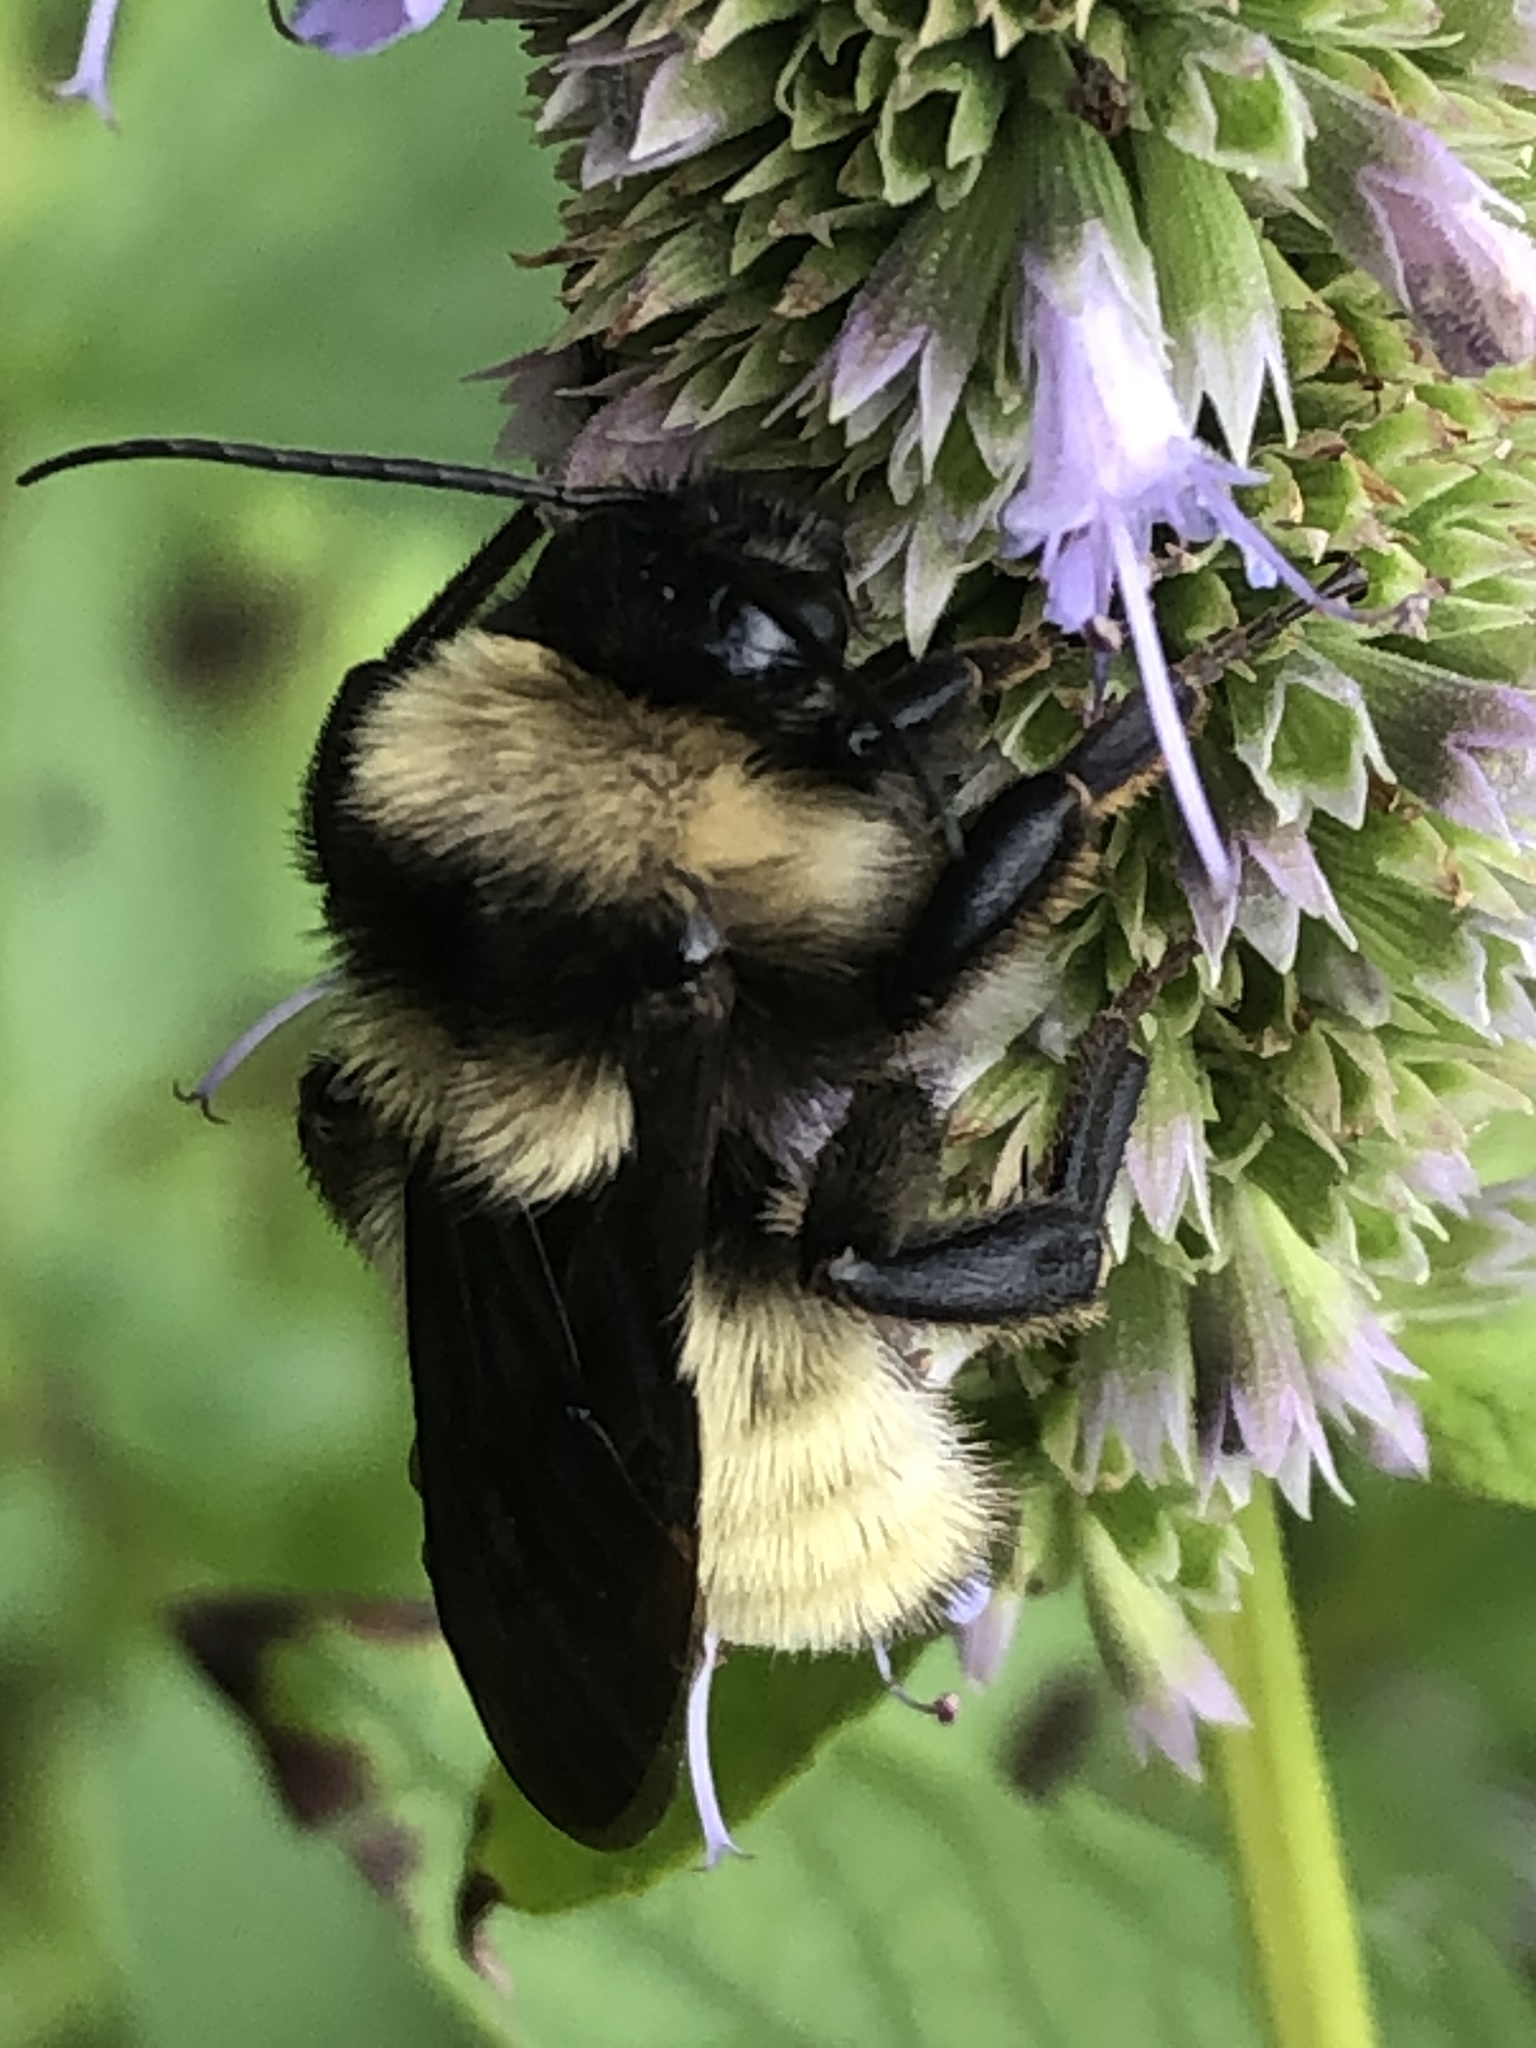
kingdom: Animalia
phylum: Arthropoda
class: Insecta
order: Hymenoptera
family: Apidae
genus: Bombus
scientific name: Bombus pensylvanicus
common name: Bumble bee
